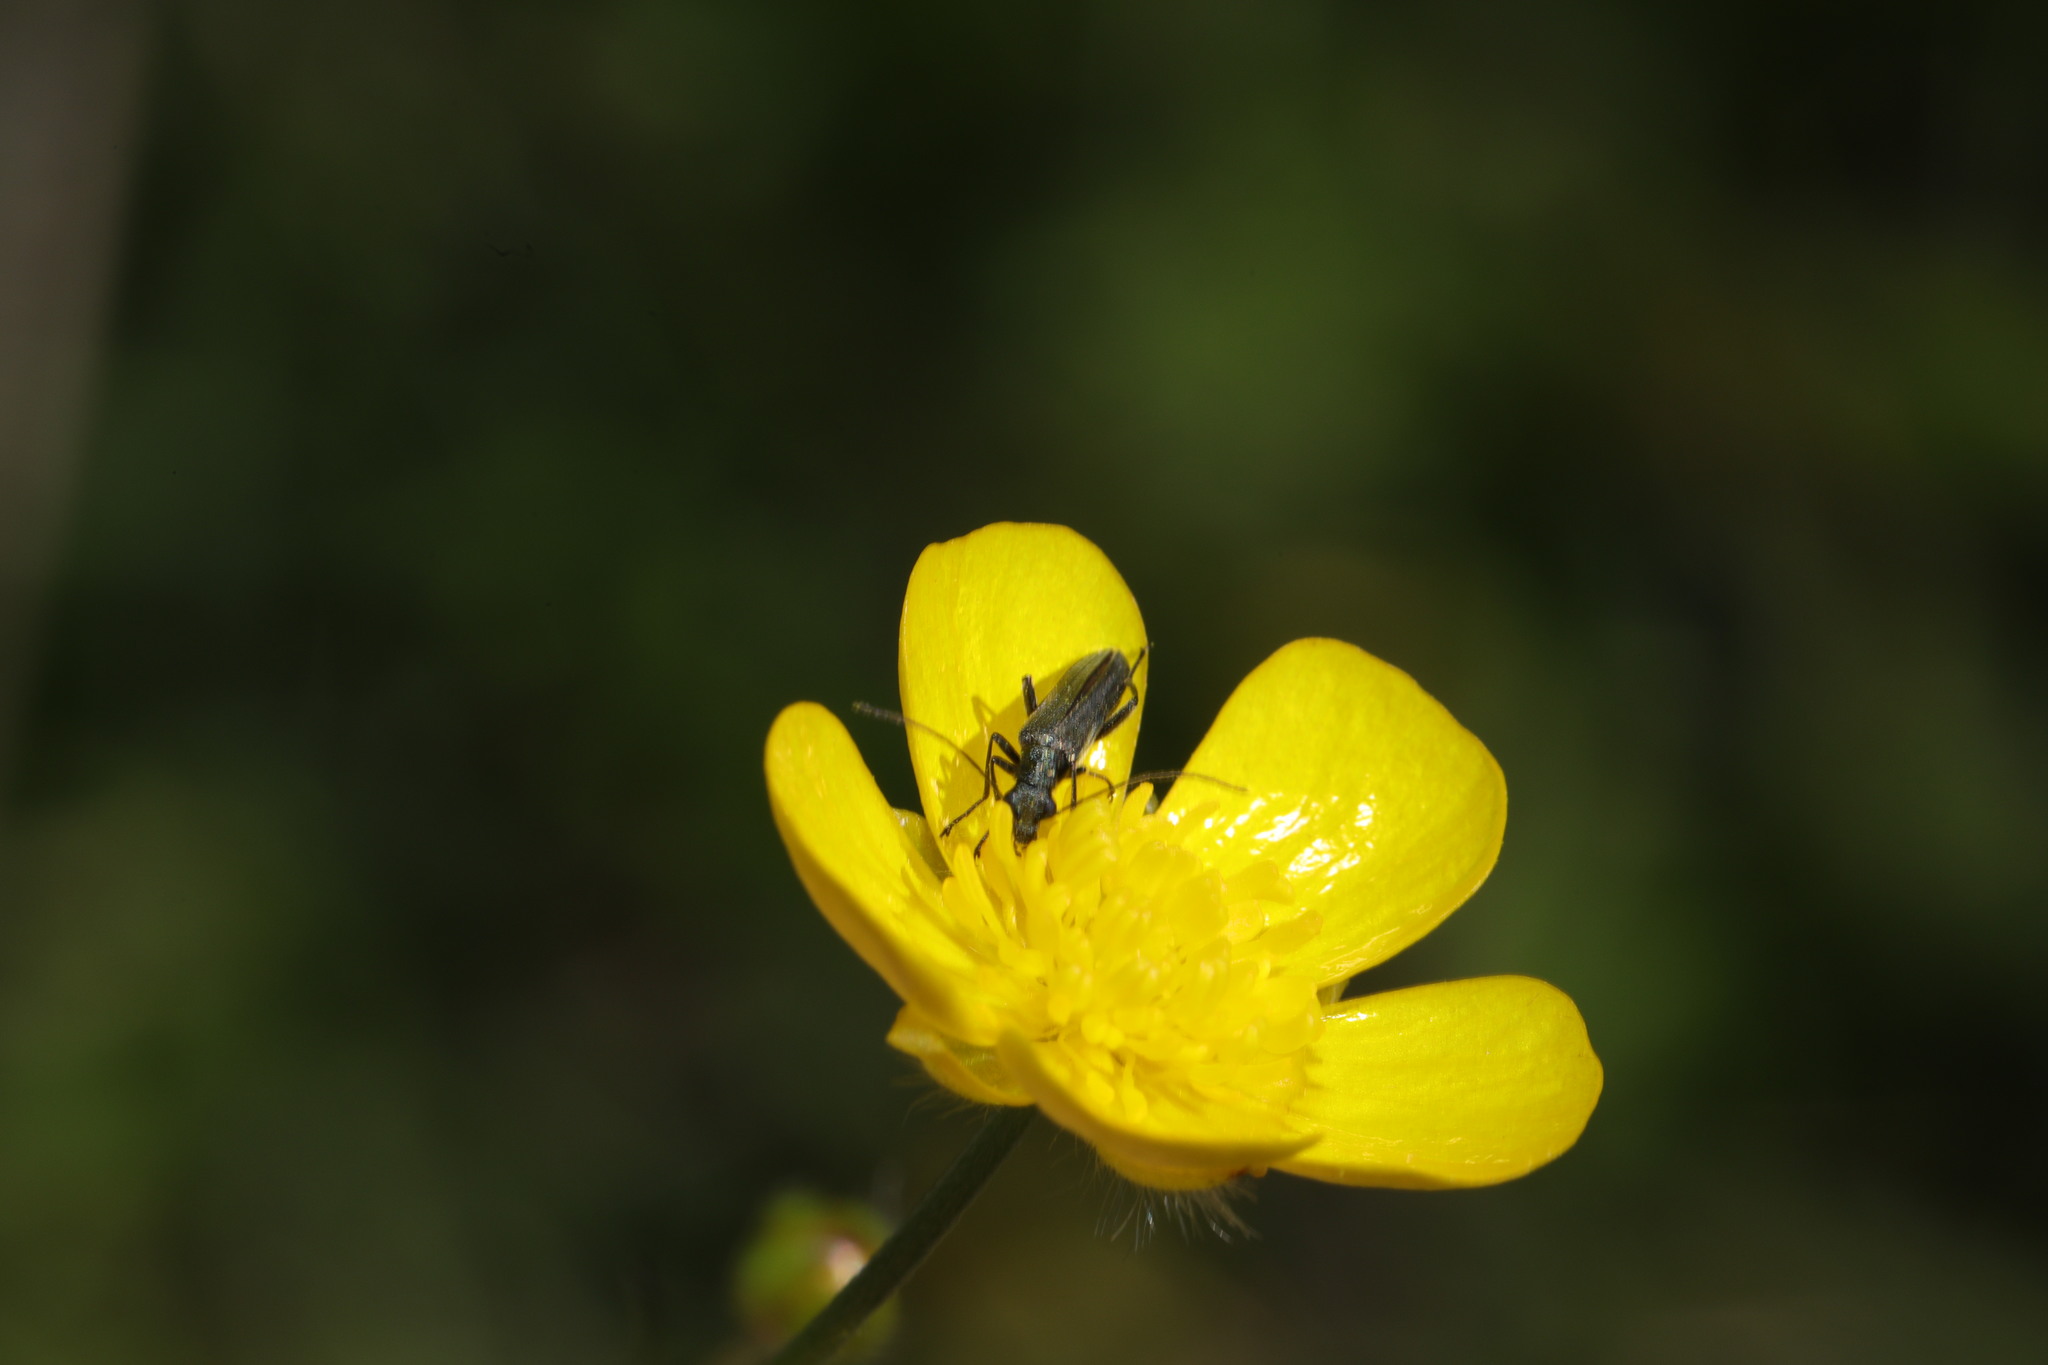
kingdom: Animalia
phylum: Arthropoda
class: Insecta
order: Coleoptera
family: Oedemeridae
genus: Oedemera
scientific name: Oedemera lurida
